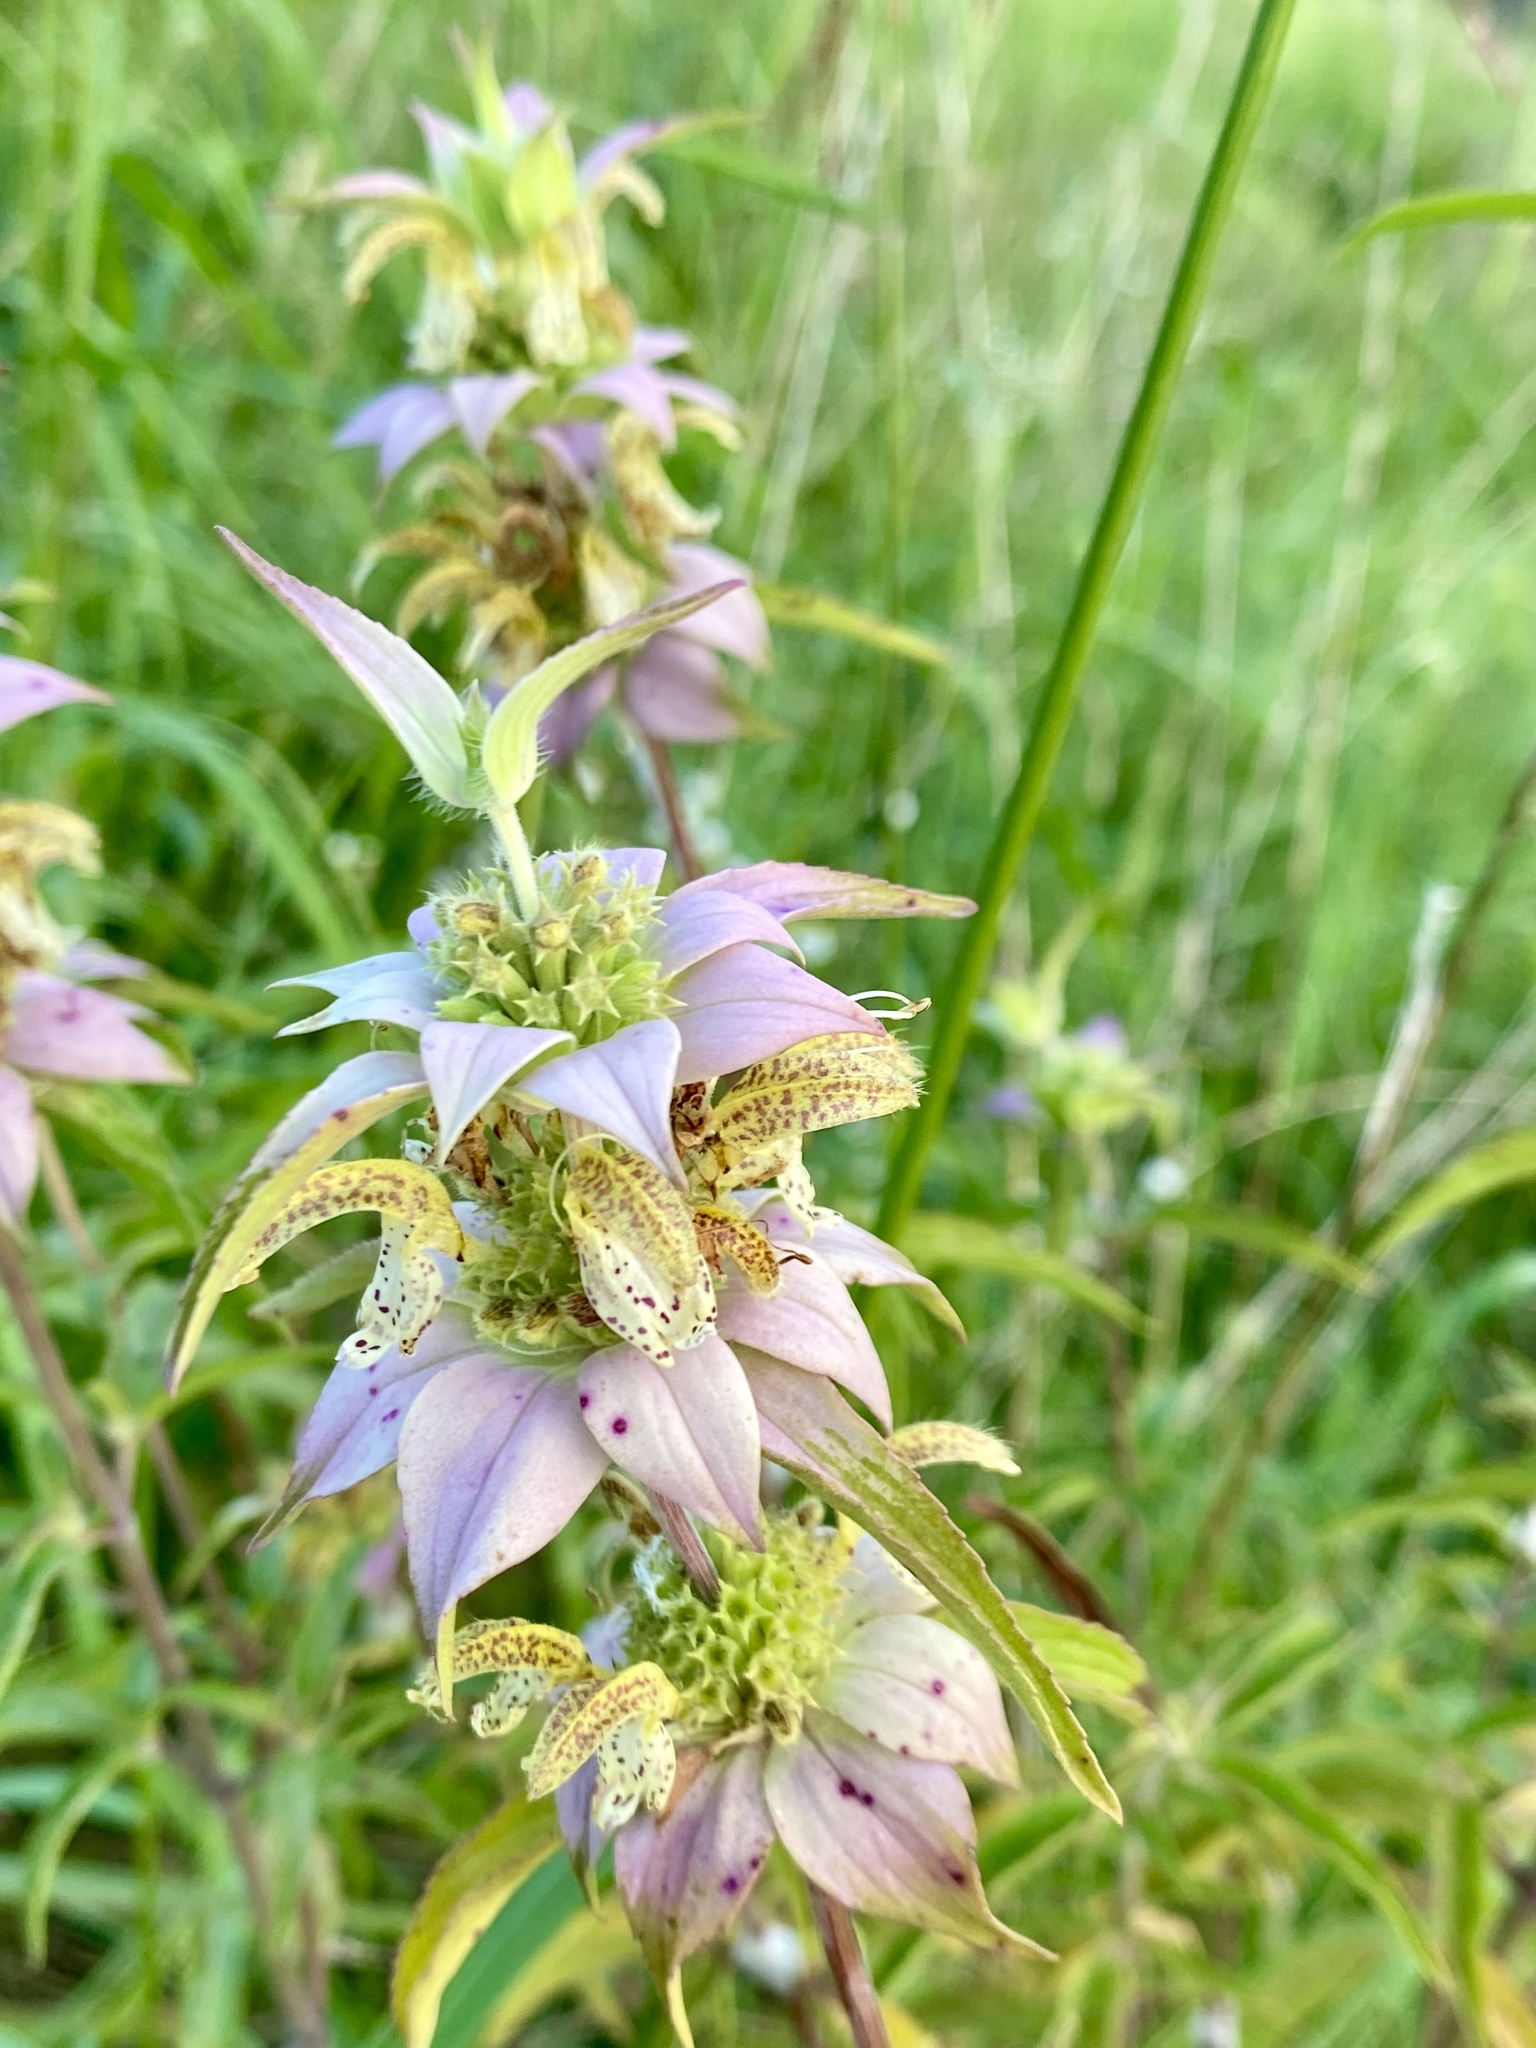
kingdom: Plantae
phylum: Tracheophyta
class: Magnoliopsida
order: Lamiales
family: Lamiaceae
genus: Monarda
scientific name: Monarda punctata
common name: Dotted monarda
